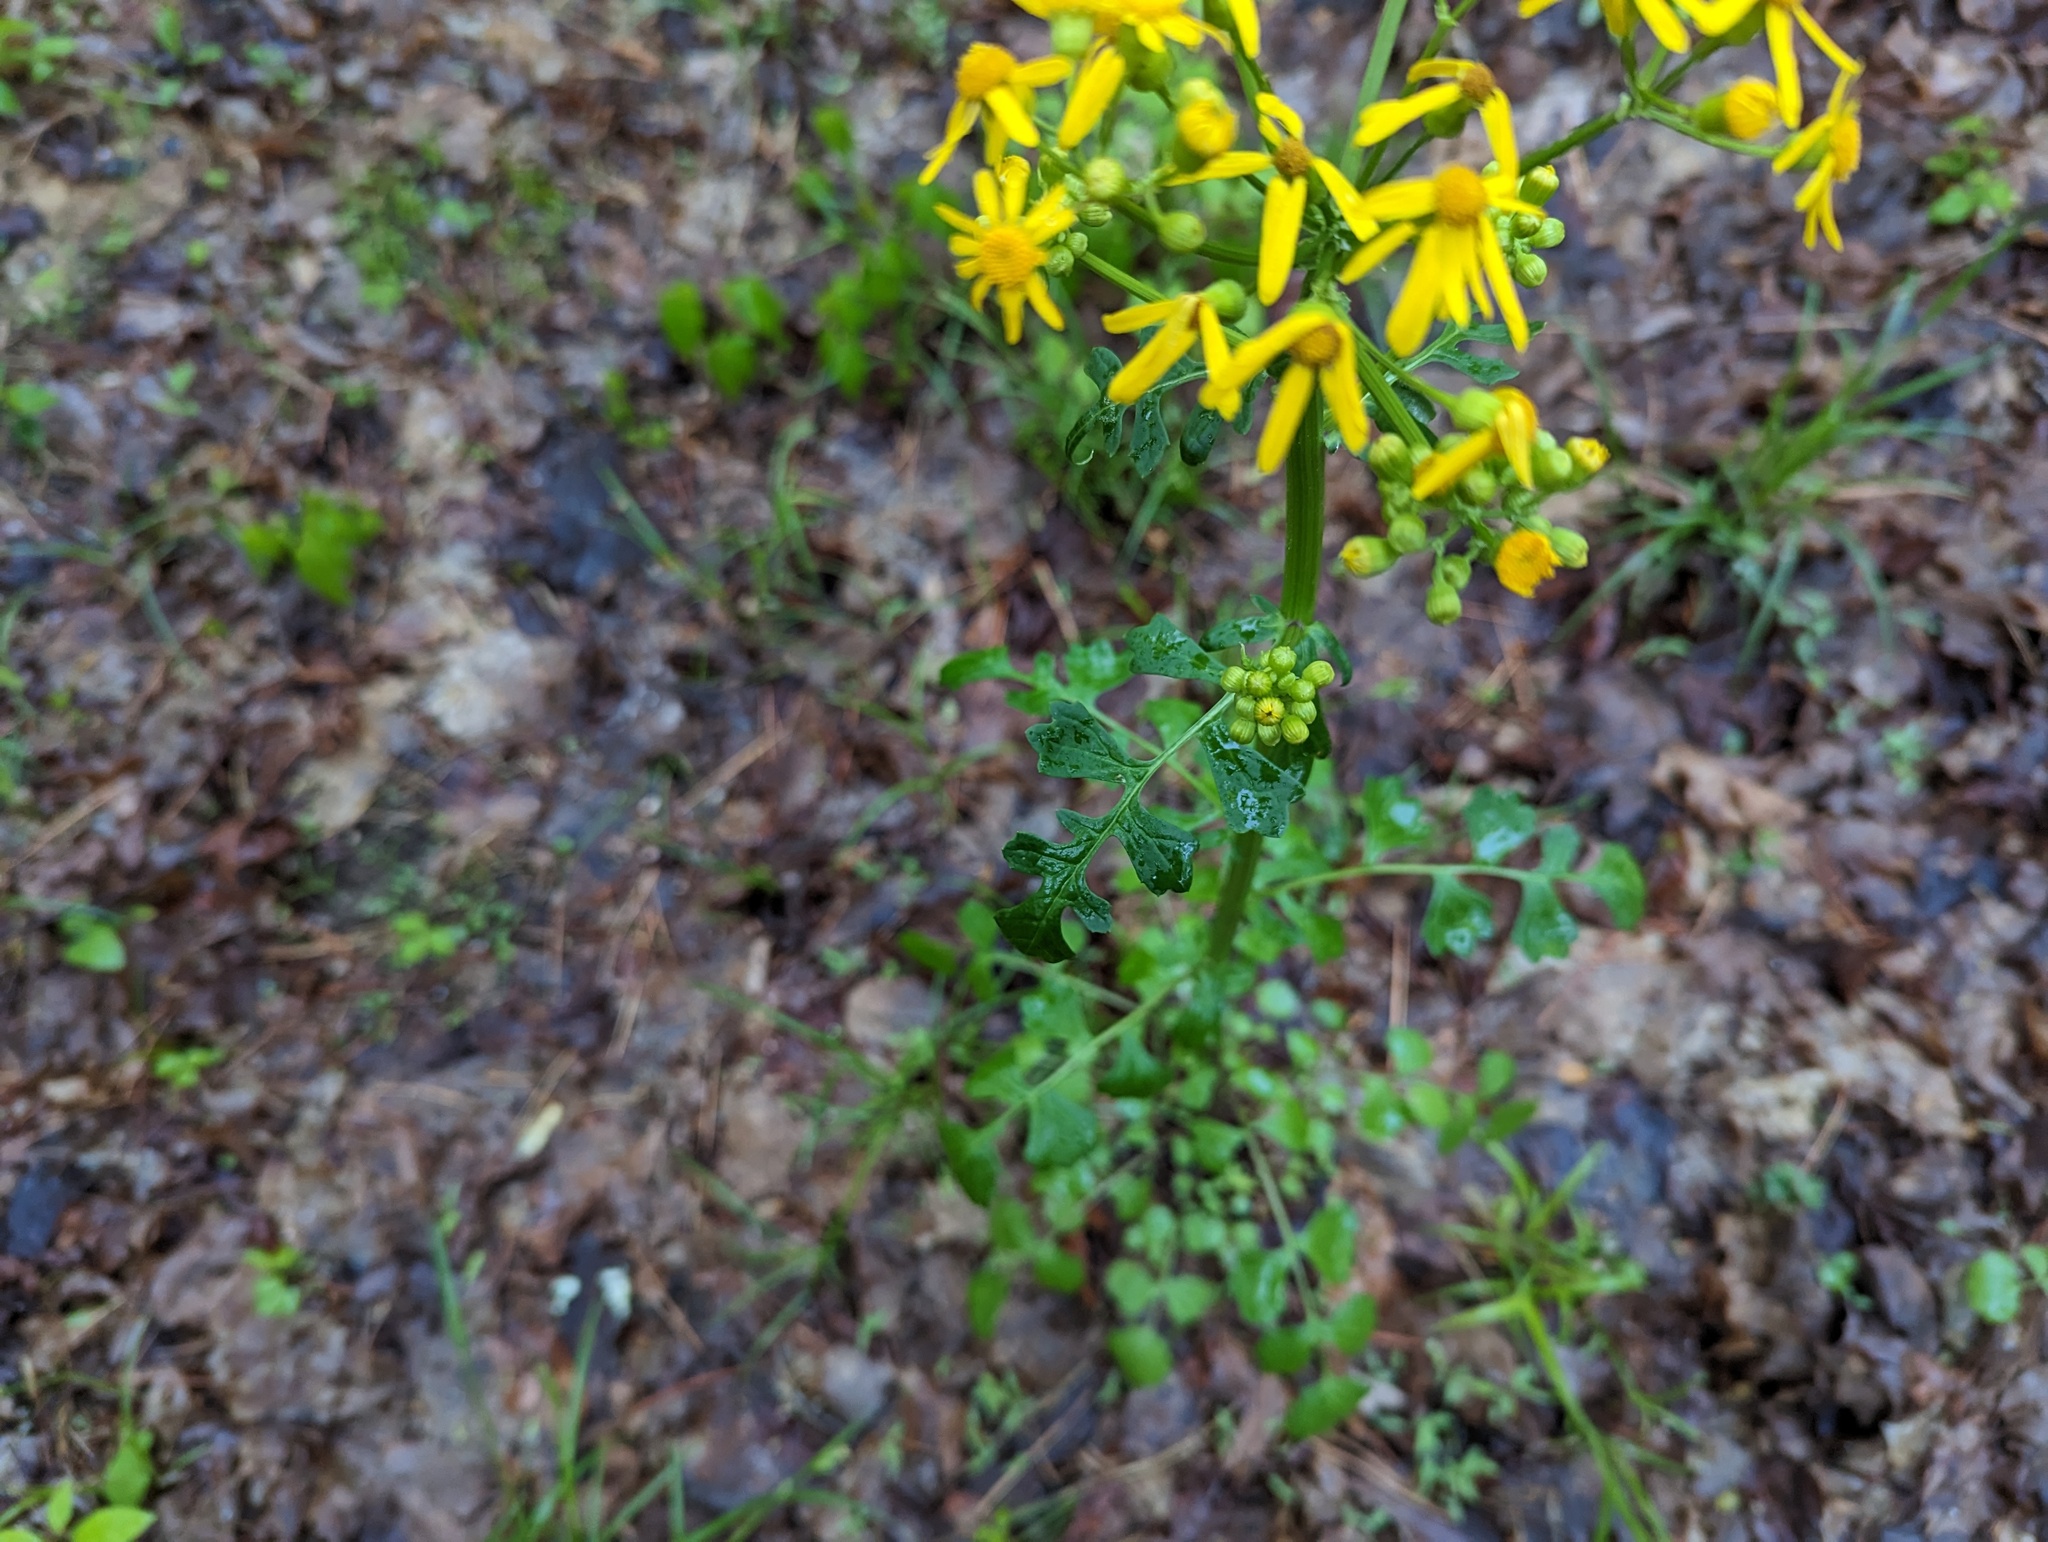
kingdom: Plantae
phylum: Tracheophyta
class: Magnoliopsida
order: Asterales
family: Asteraceae
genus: Packera
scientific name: Packera glabella
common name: Butterweed
